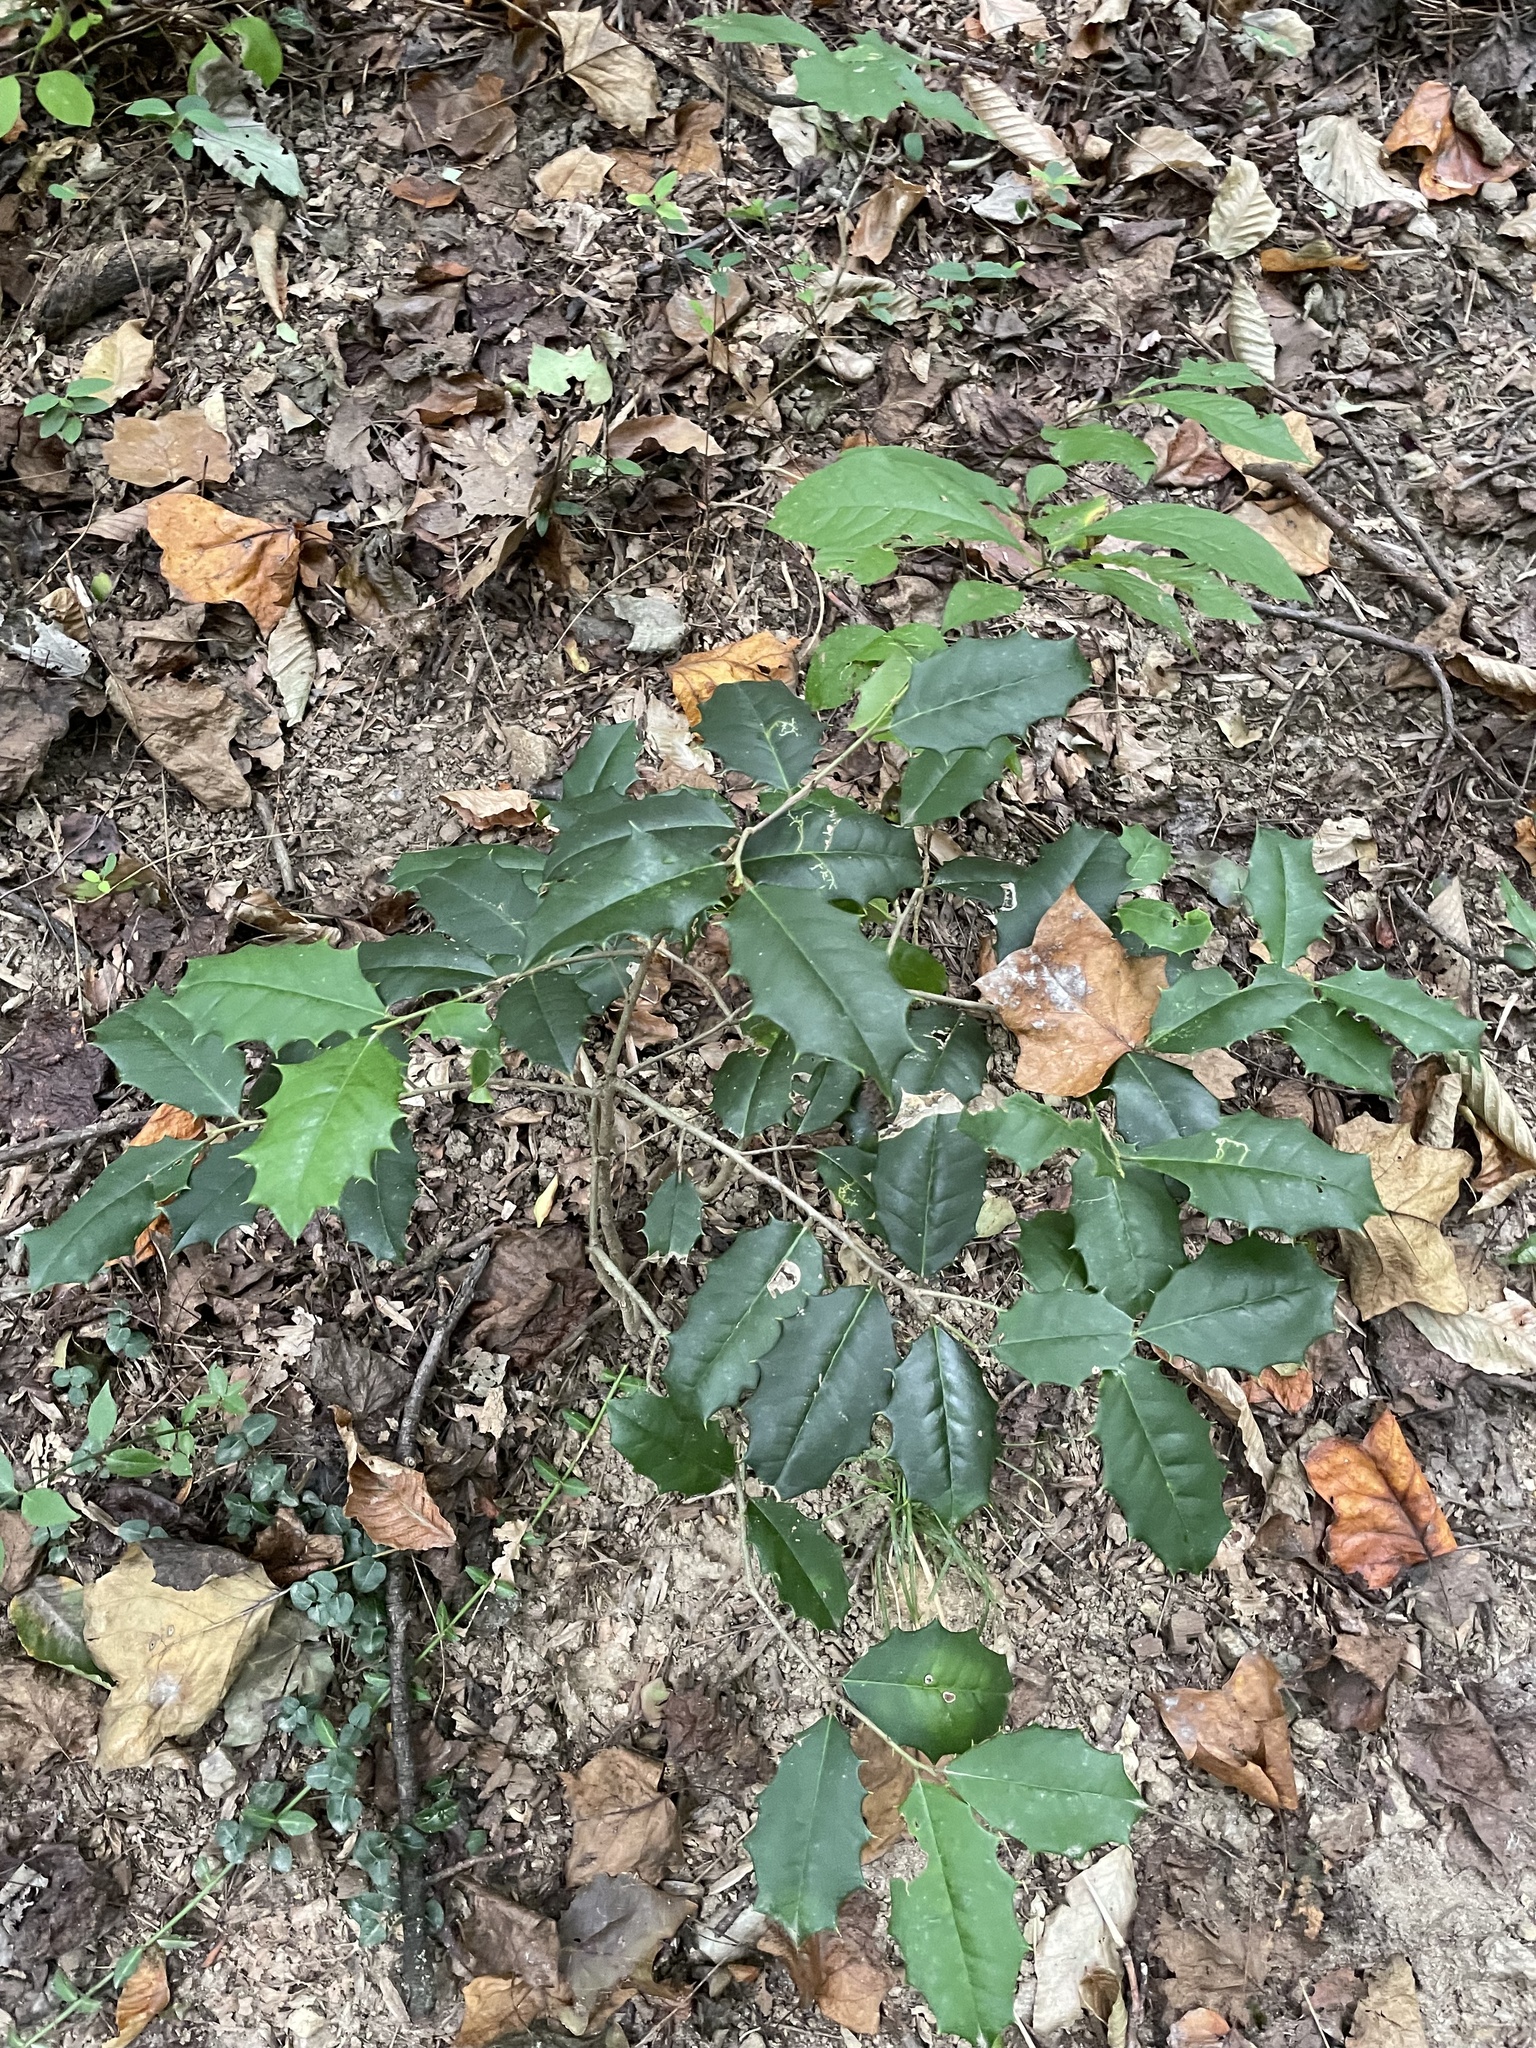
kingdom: Plantae
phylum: Tracheophyta
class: Magnoliopsida
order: Aquifoliales
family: Aquifoliaceae
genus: Ilex
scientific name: Ilex opaca
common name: American holly
